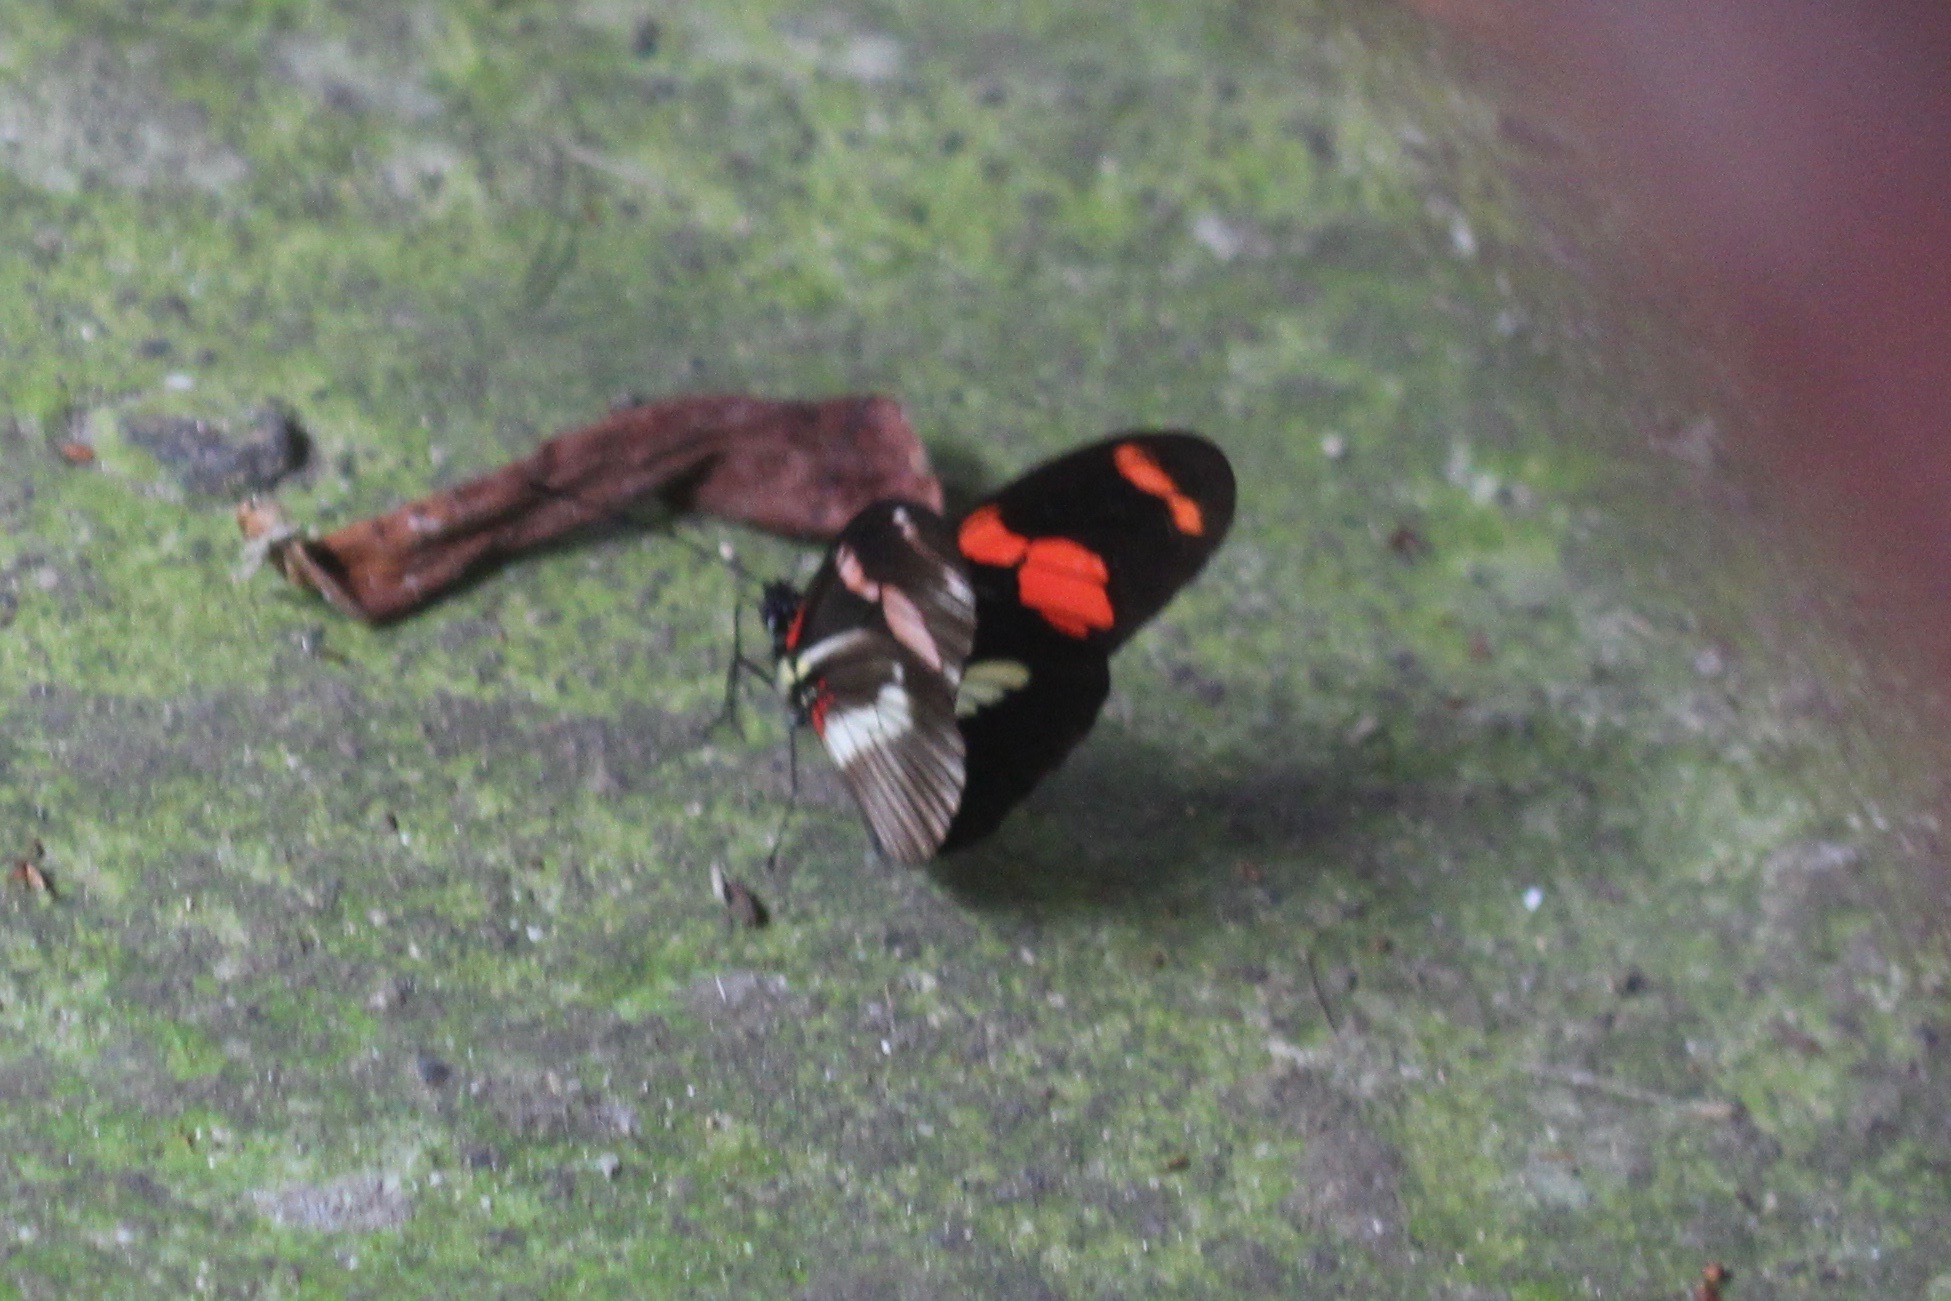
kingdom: Animalia
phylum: Arthropoda
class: Insecta
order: Lepidoptera
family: Nymphalidae
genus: Heliconius
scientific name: Heliconius telesiphe
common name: Telesiphe longwing
